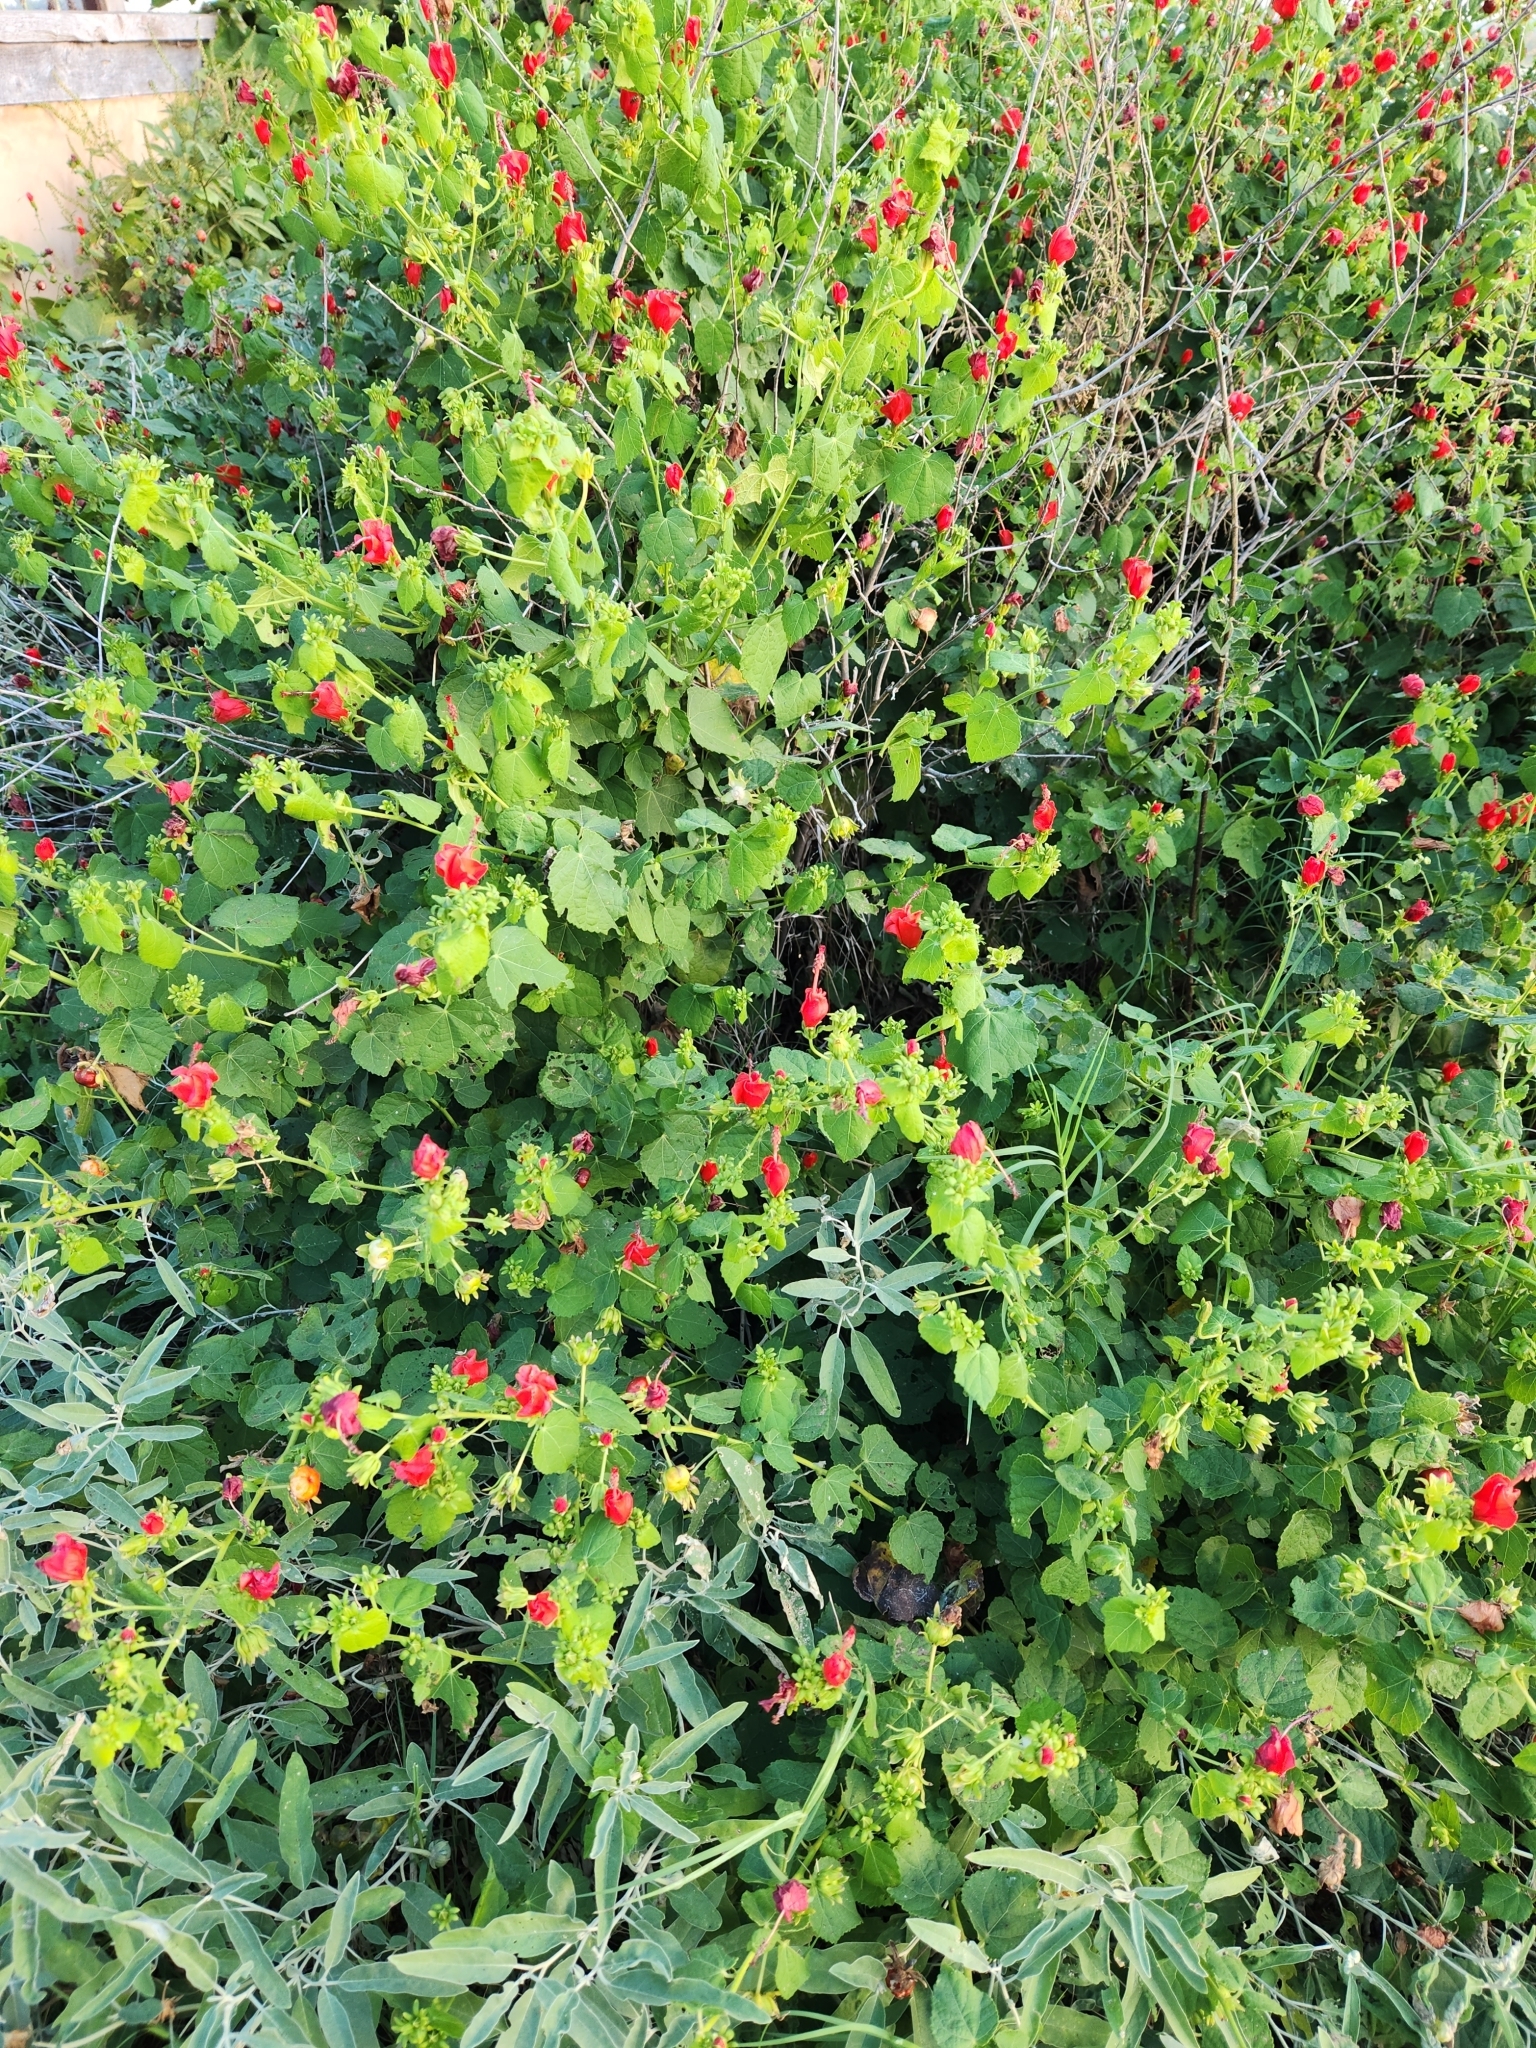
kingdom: Plantae
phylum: Tracheophyta
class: Magnoliopsida
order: Malvales
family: Malvaceae
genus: Malvaviscus
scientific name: Malvaviscus arboreus
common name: Wax mallow
